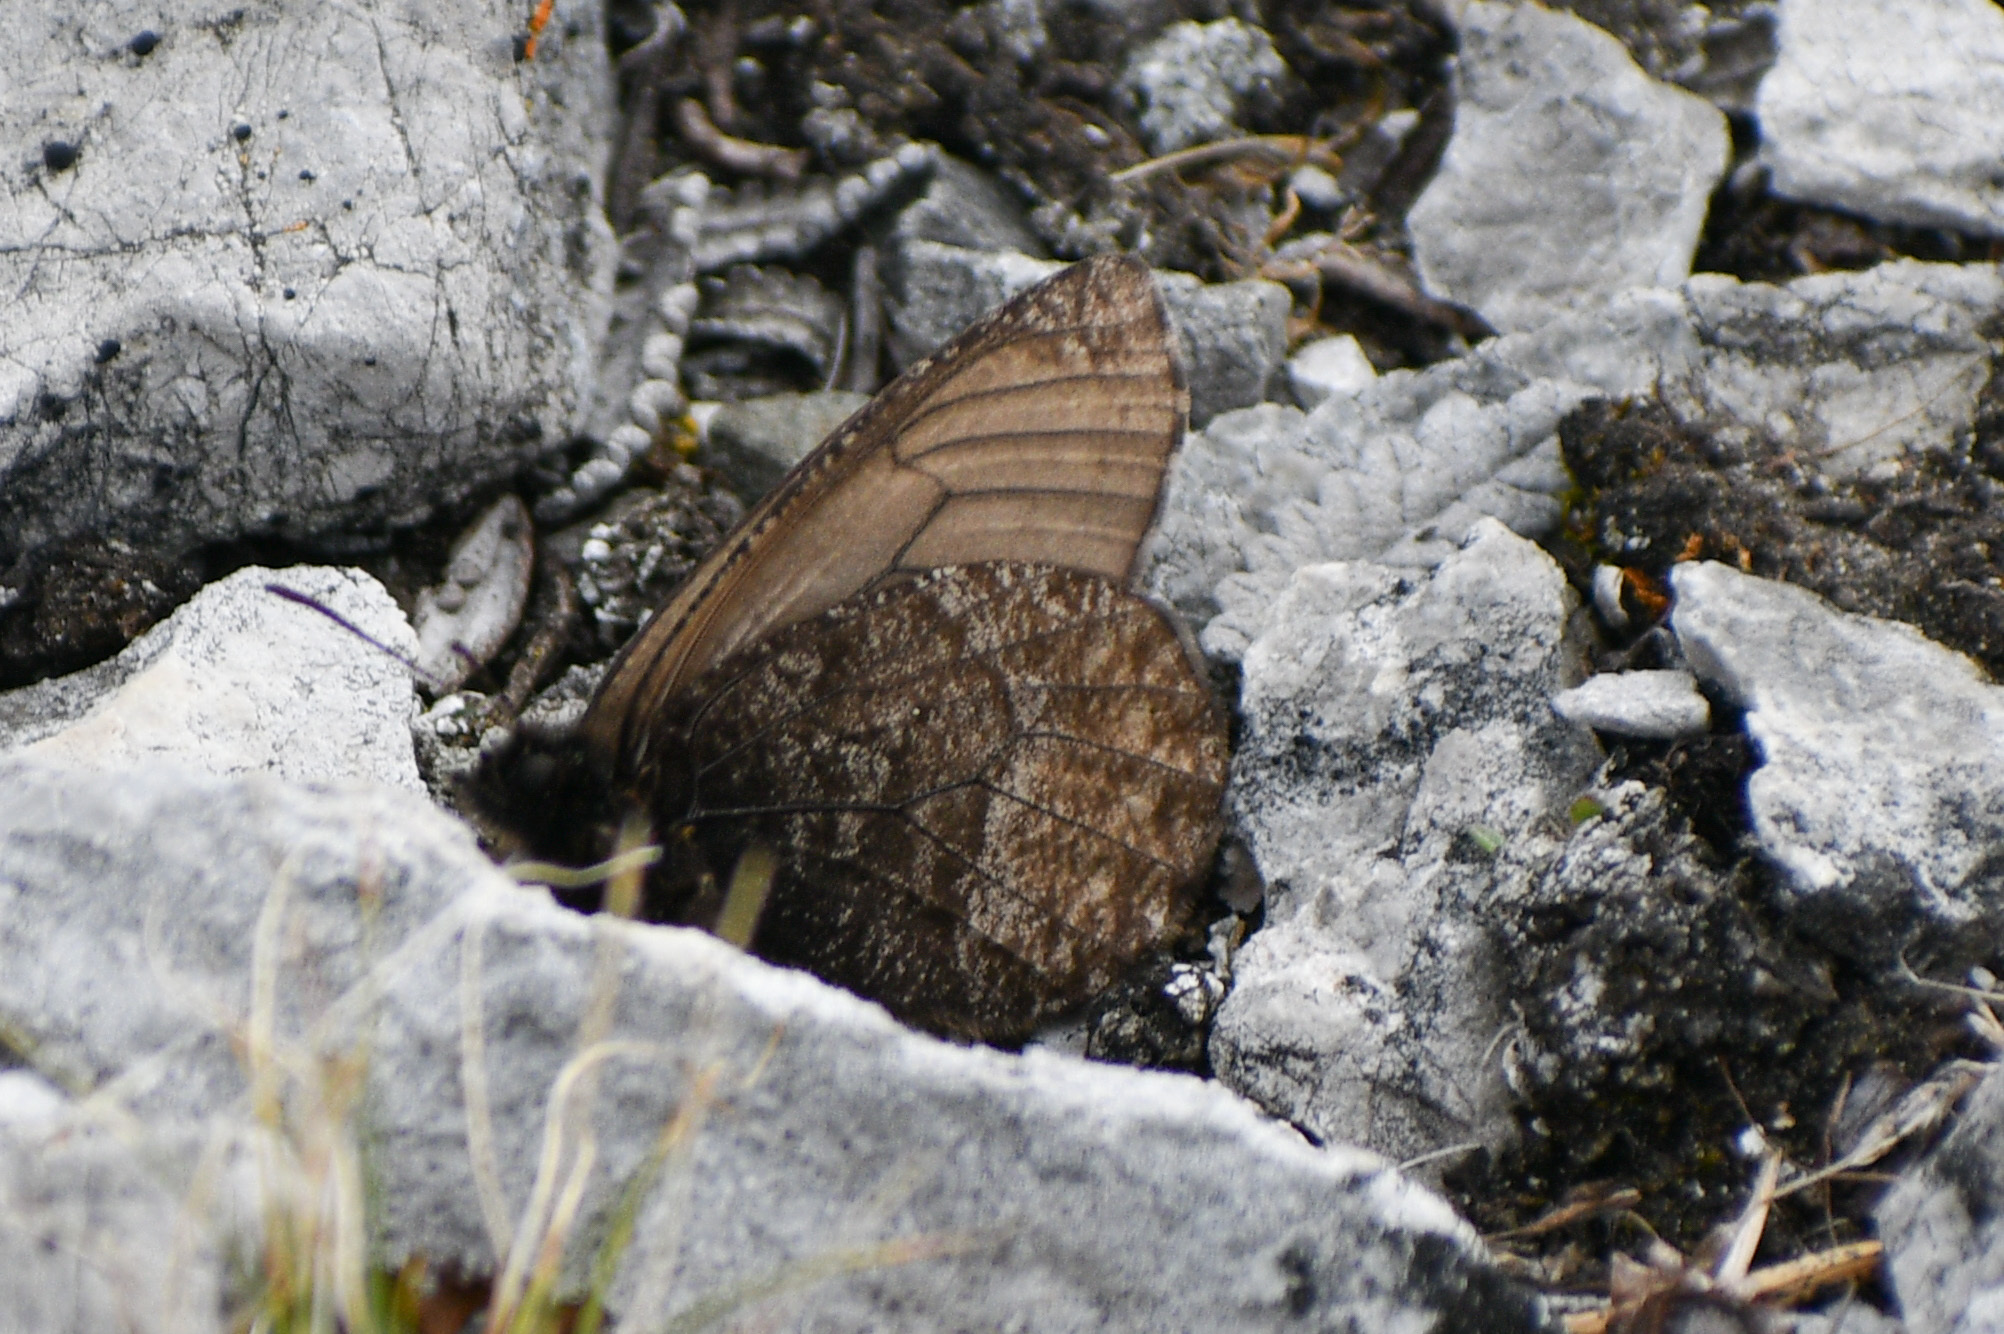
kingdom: Animalia
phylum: Arthropoda
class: Insecta
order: Lepidoptera
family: Nymphalidae
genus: Oeneis
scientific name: Oeneis melissa
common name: Melissa arctic
